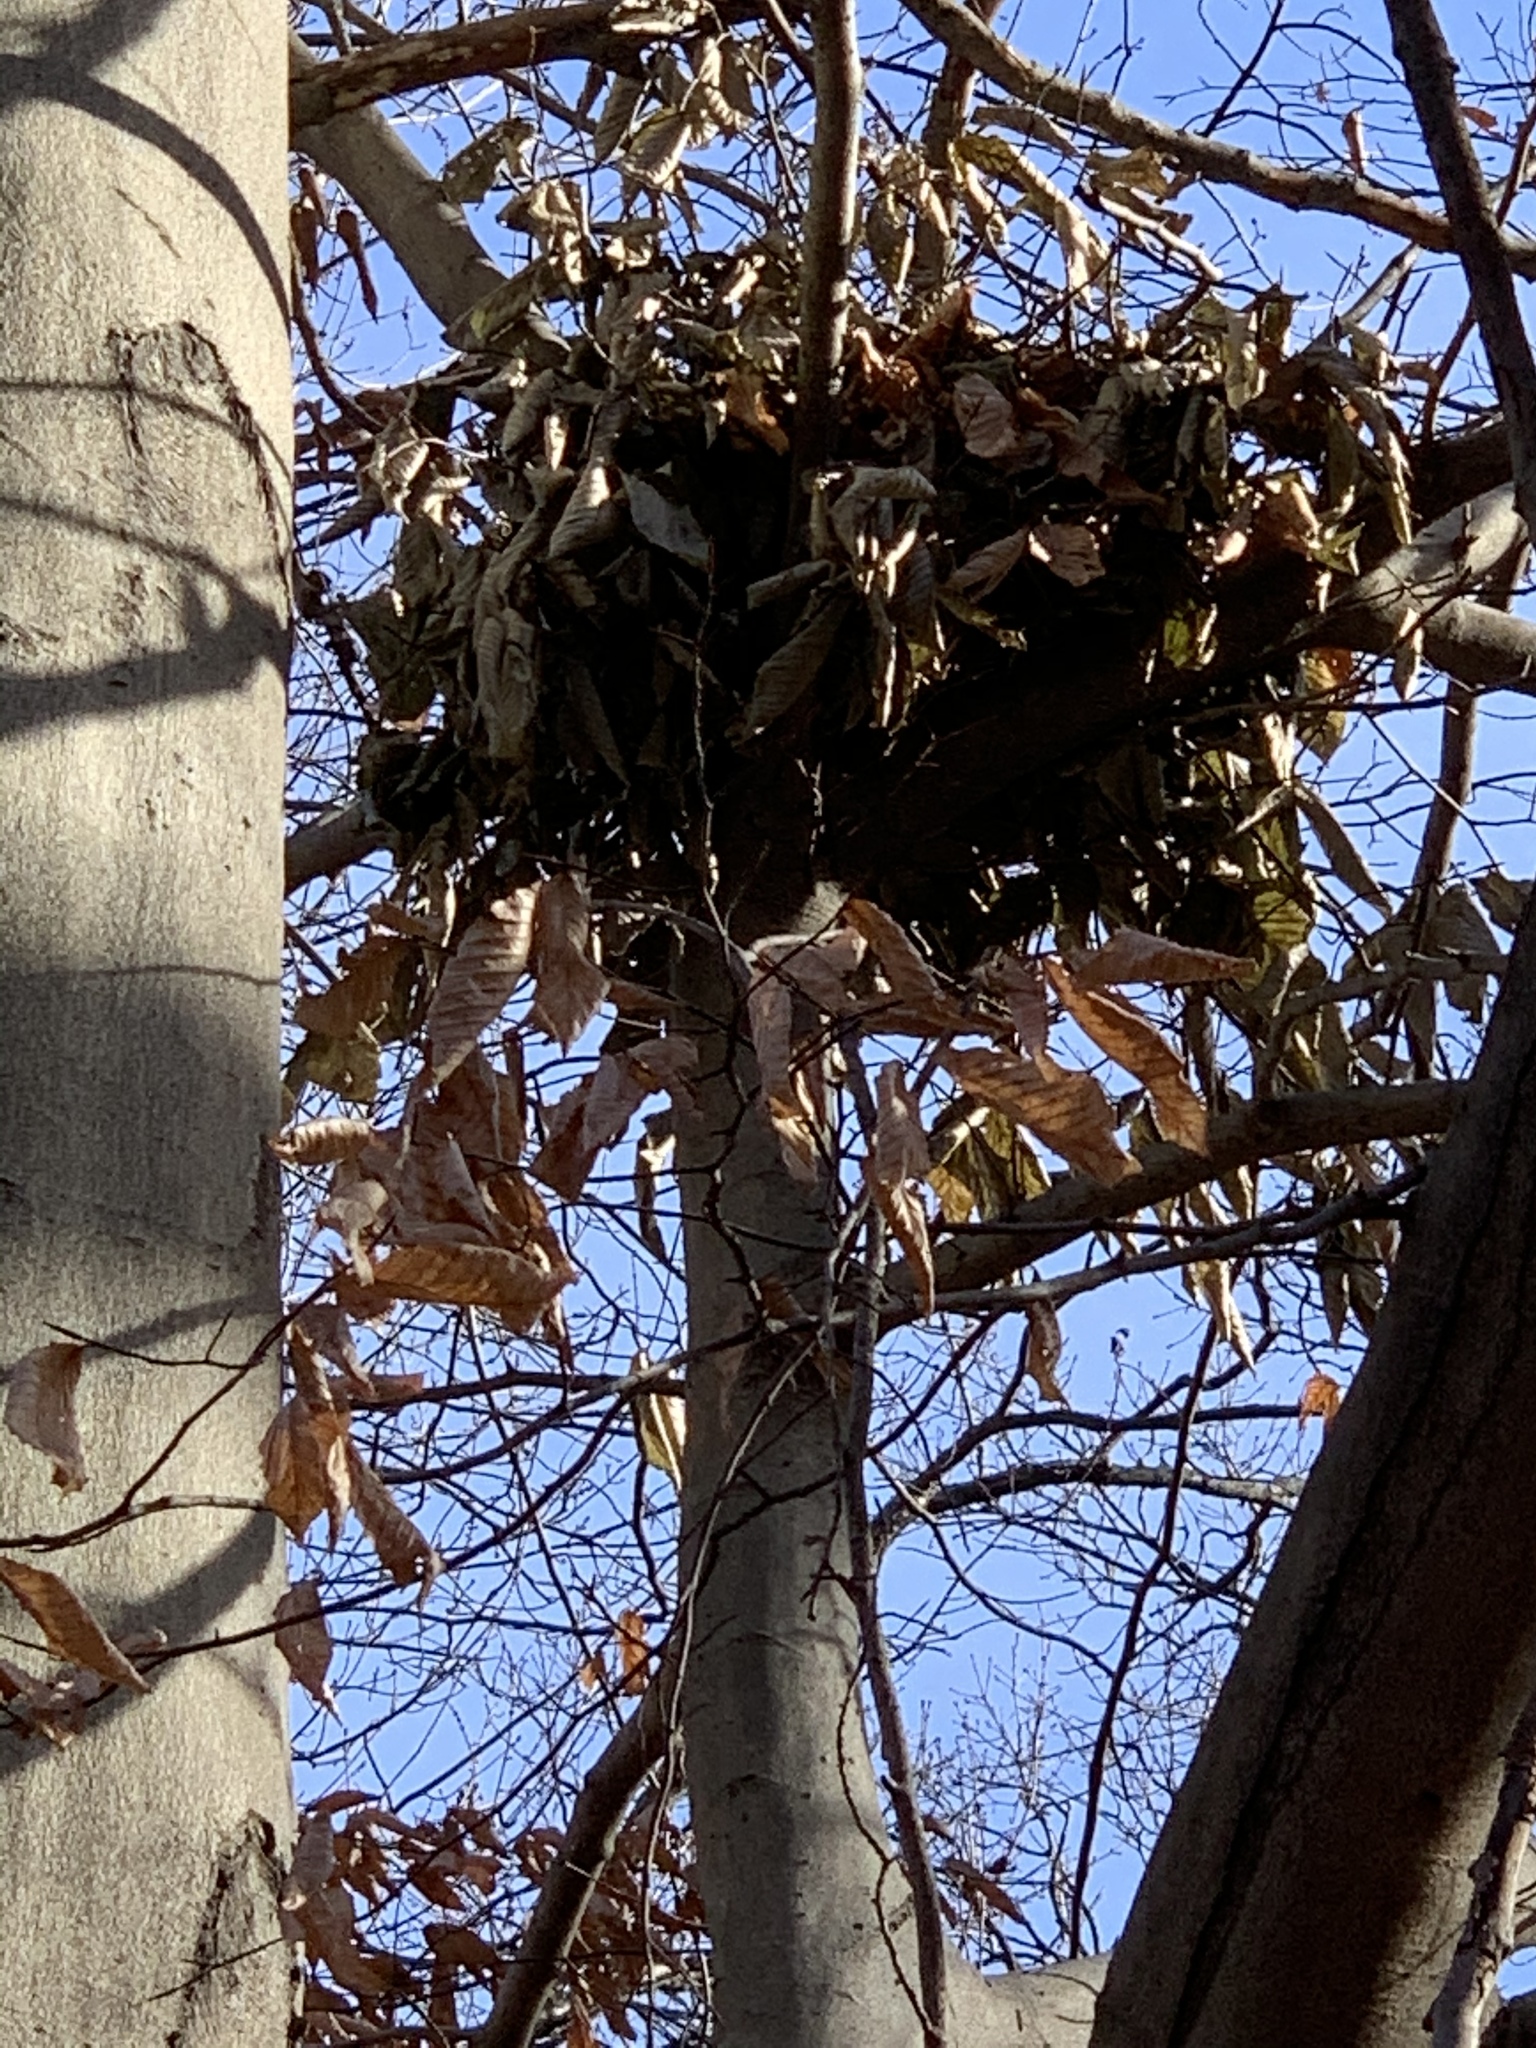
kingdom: Plantae
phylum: Tracheophyta
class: Magnoliopsida
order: Fagales
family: Fagaceae
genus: Fagus
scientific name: Fagus grandifolia
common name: American beech
